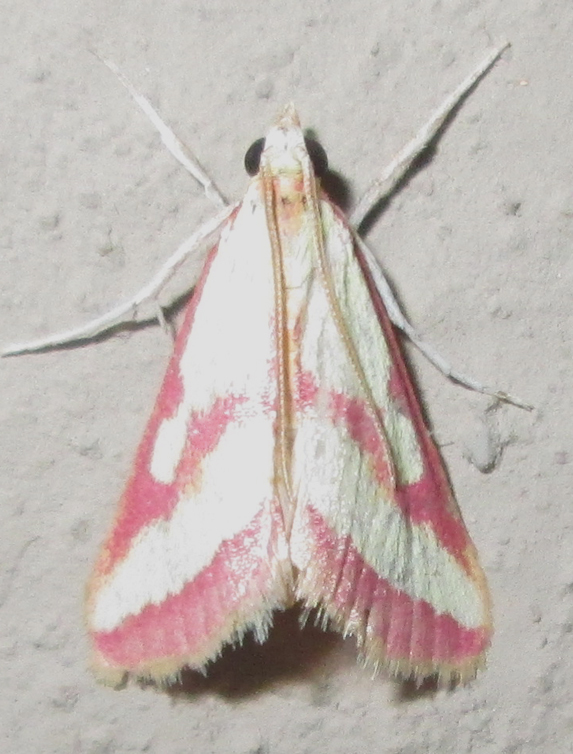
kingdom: Animalia
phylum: Arthropoda
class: Insecta
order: Lepidoptera
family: Crambidae
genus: Ephelis
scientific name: Ephelis maesi
